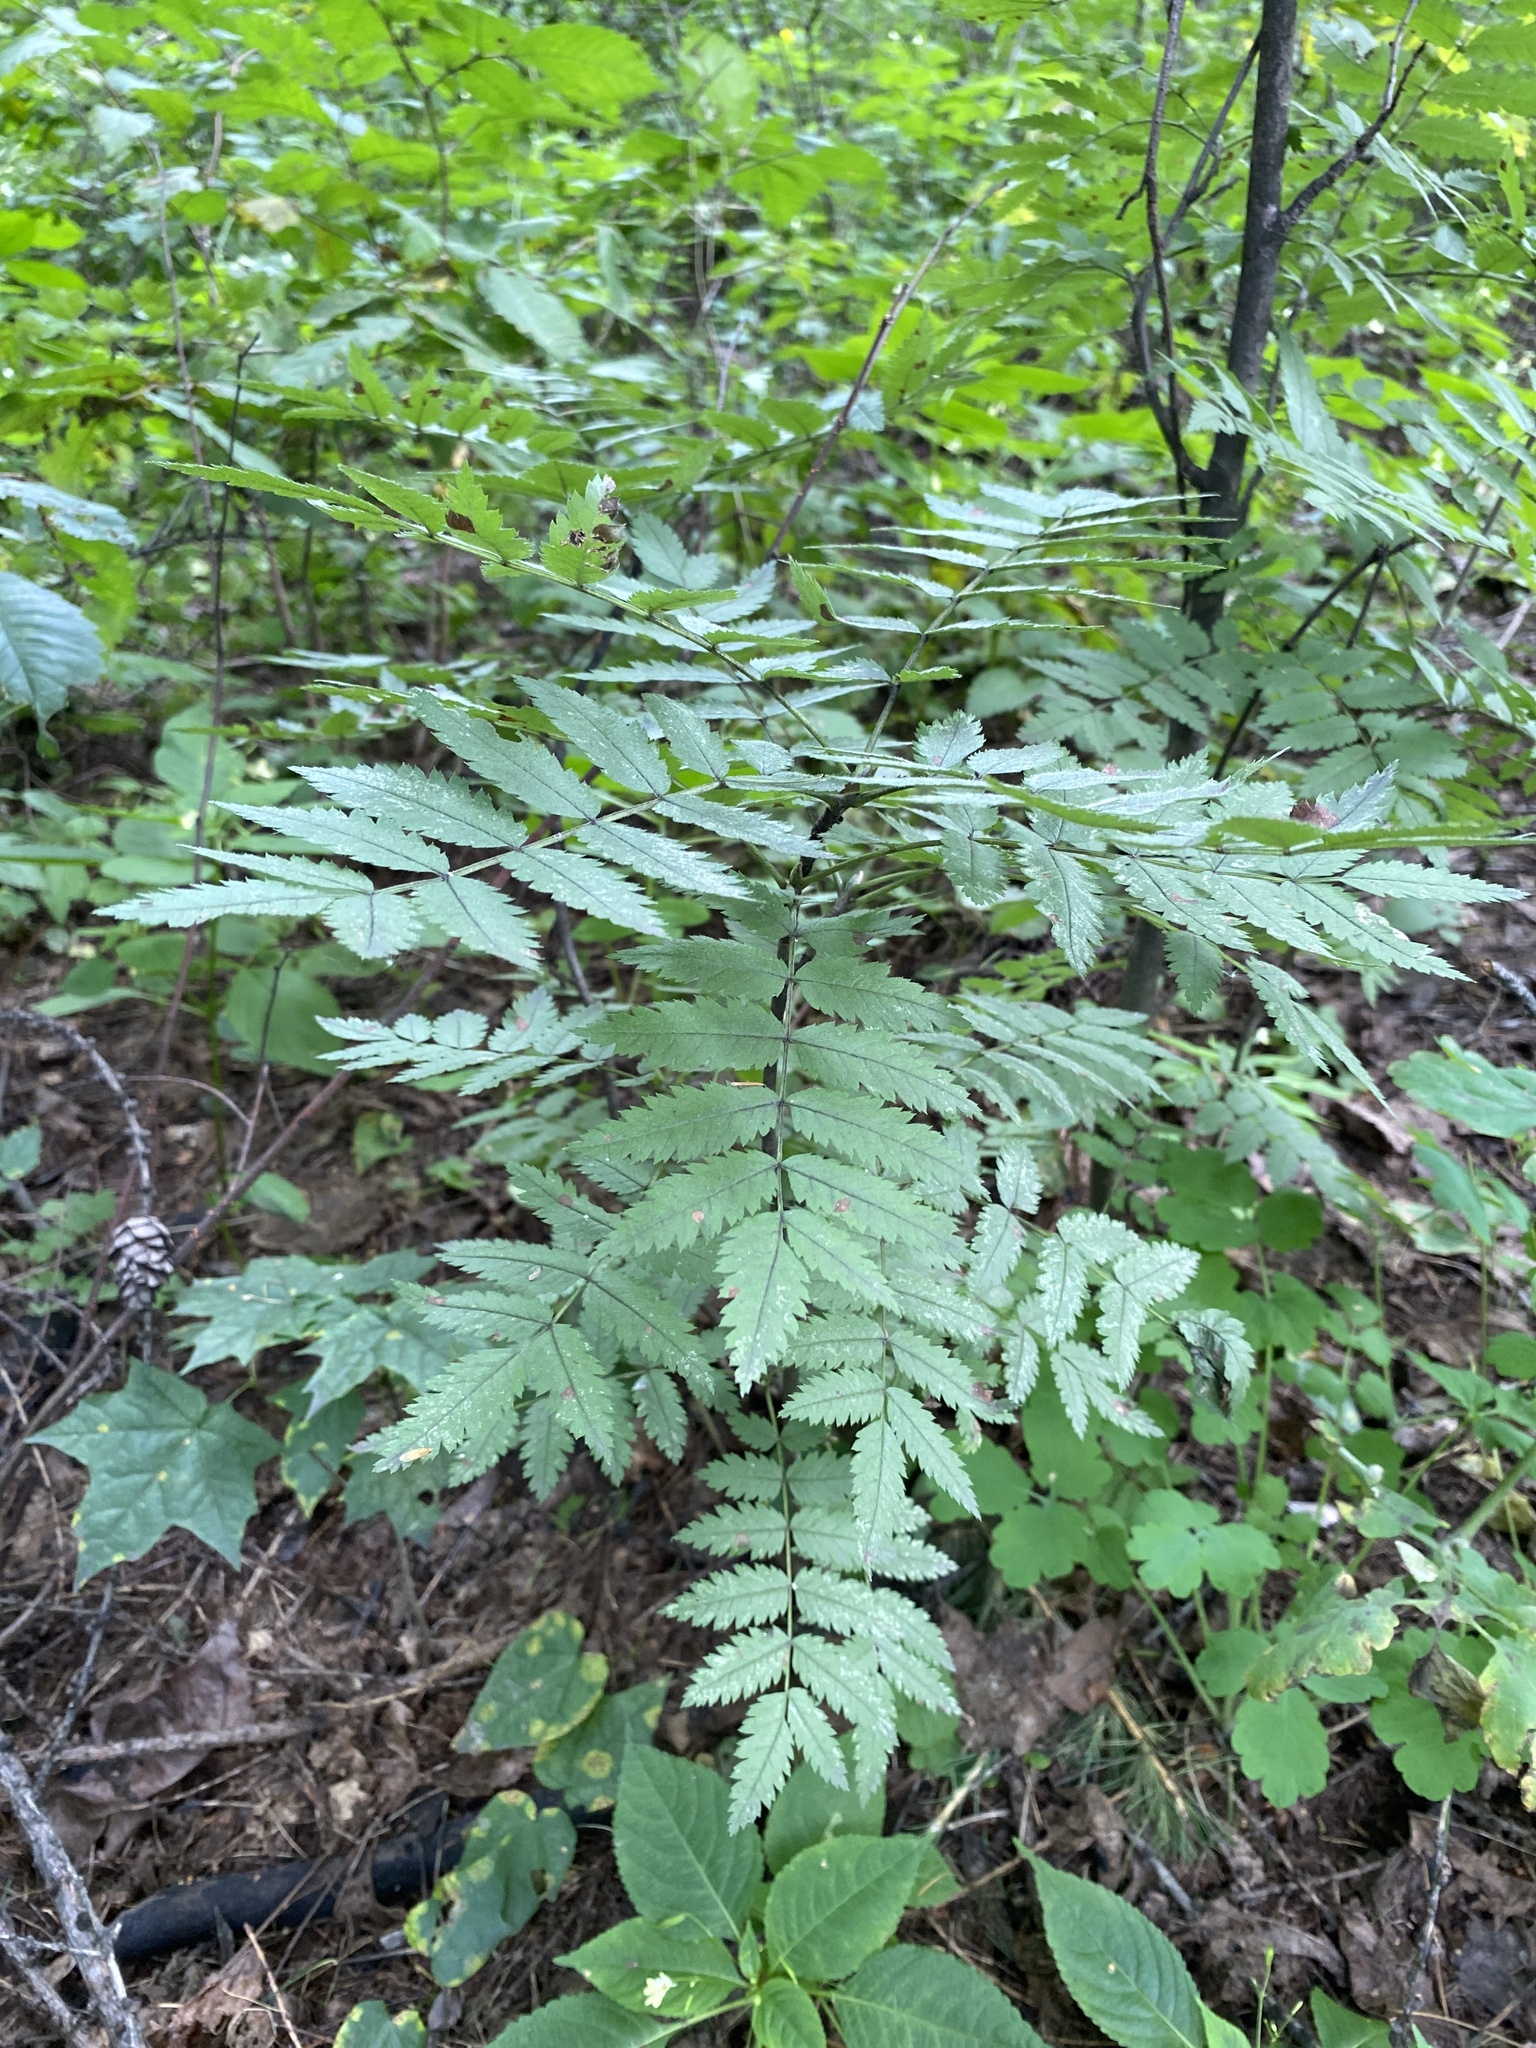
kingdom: Plantae
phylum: Tracheophyta
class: Magnoliopsida
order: Rosales
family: Rosaceae
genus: Sorbus
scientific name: Sorbus aucuparia
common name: Rowan
